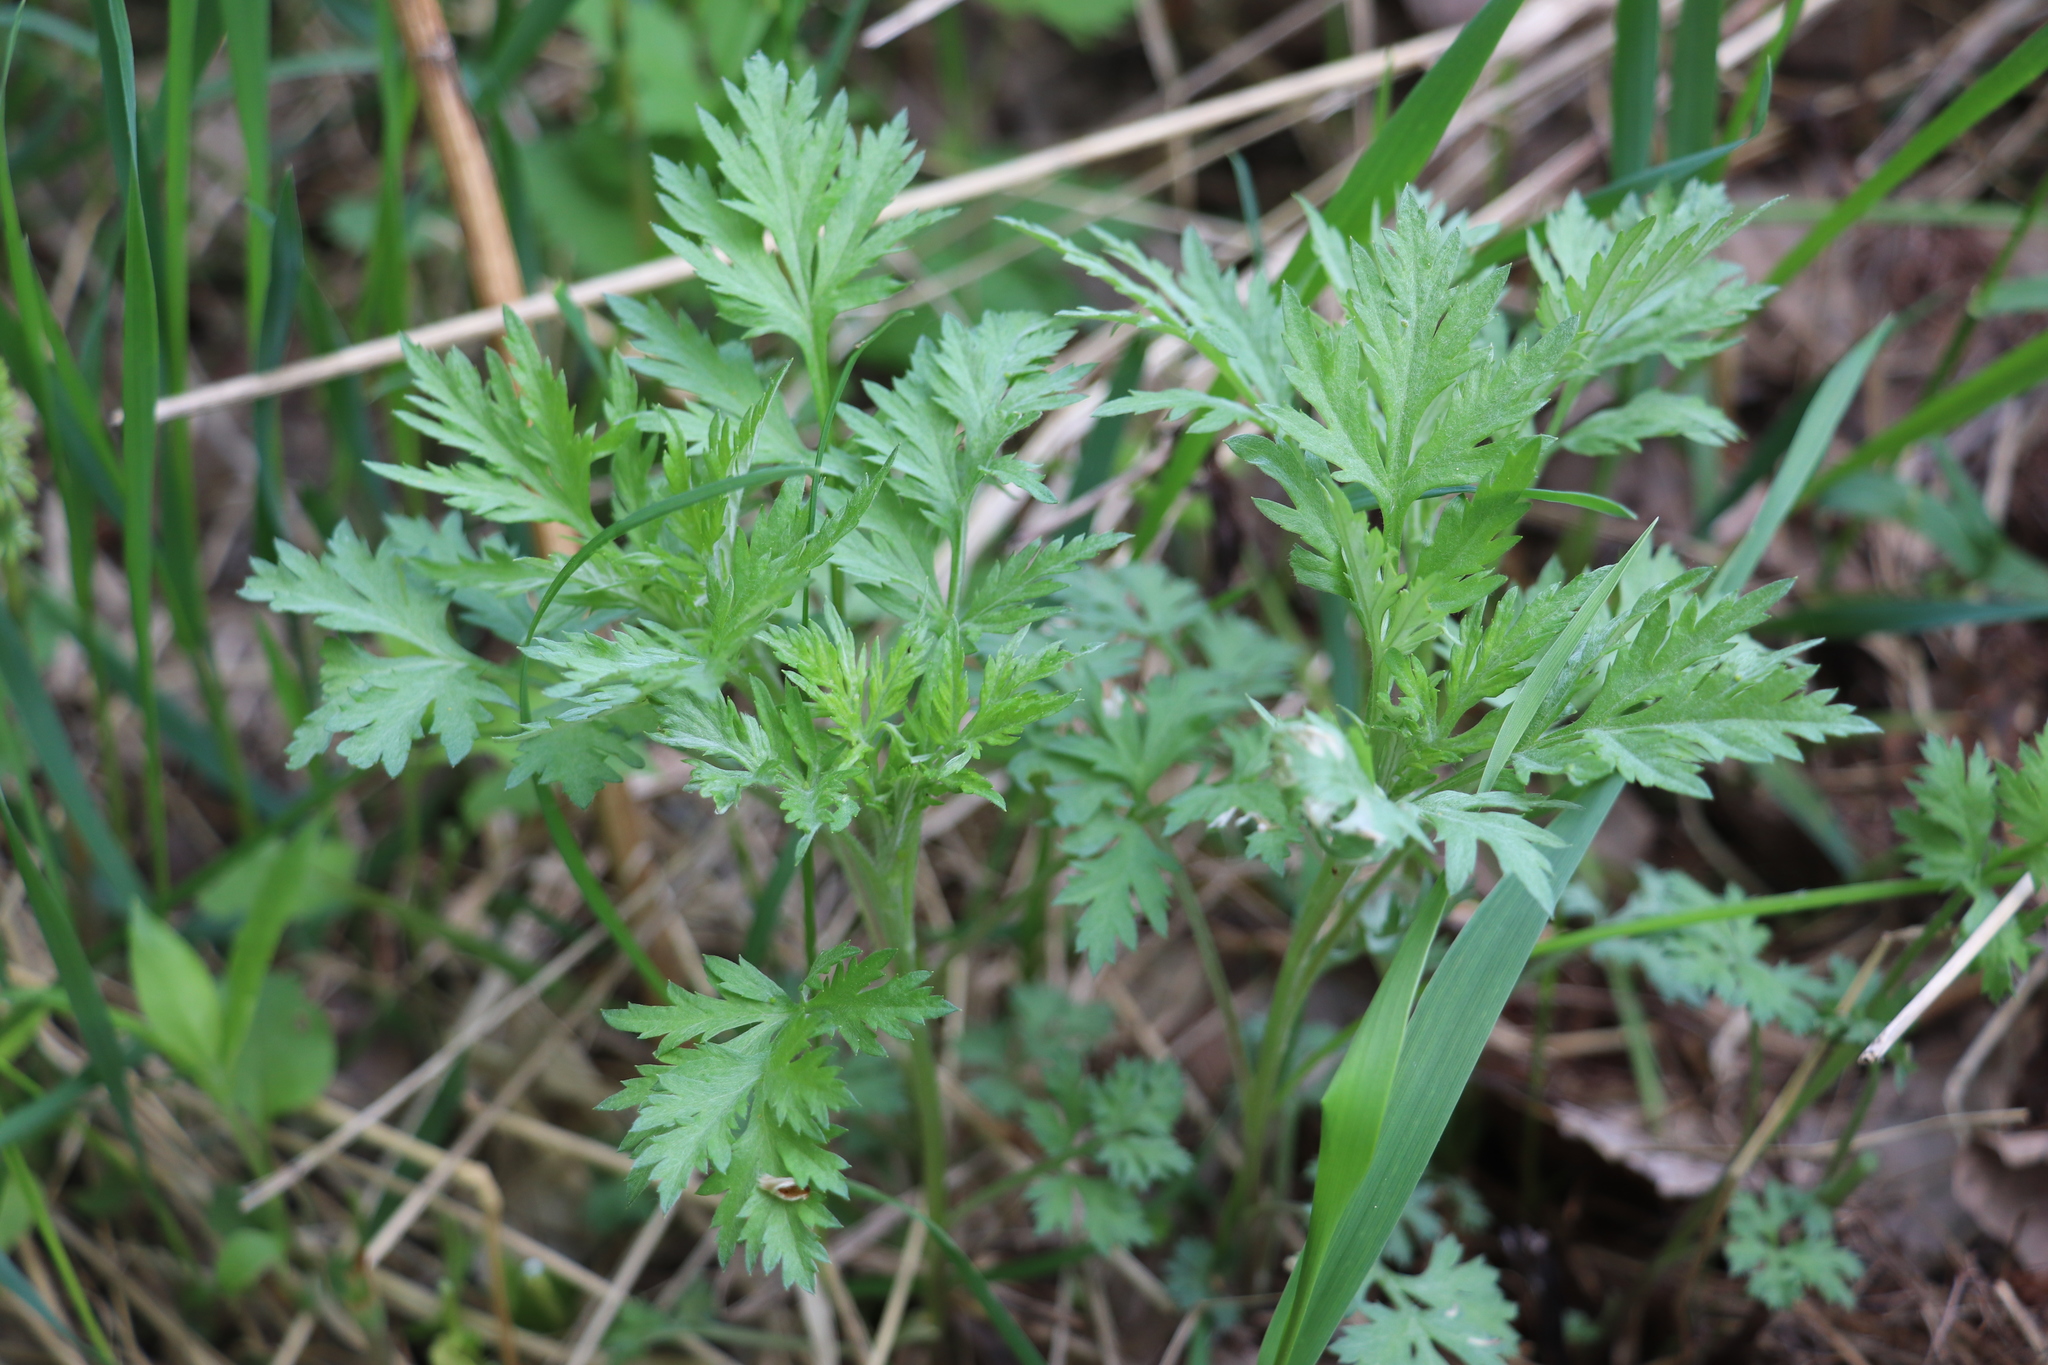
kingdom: Plantae
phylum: Tracheophyta
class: Magnoliopsida
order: Asterales
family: Asteraceae
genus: Artemisia
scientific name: Artemisia vulgaris
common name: Mugwort
